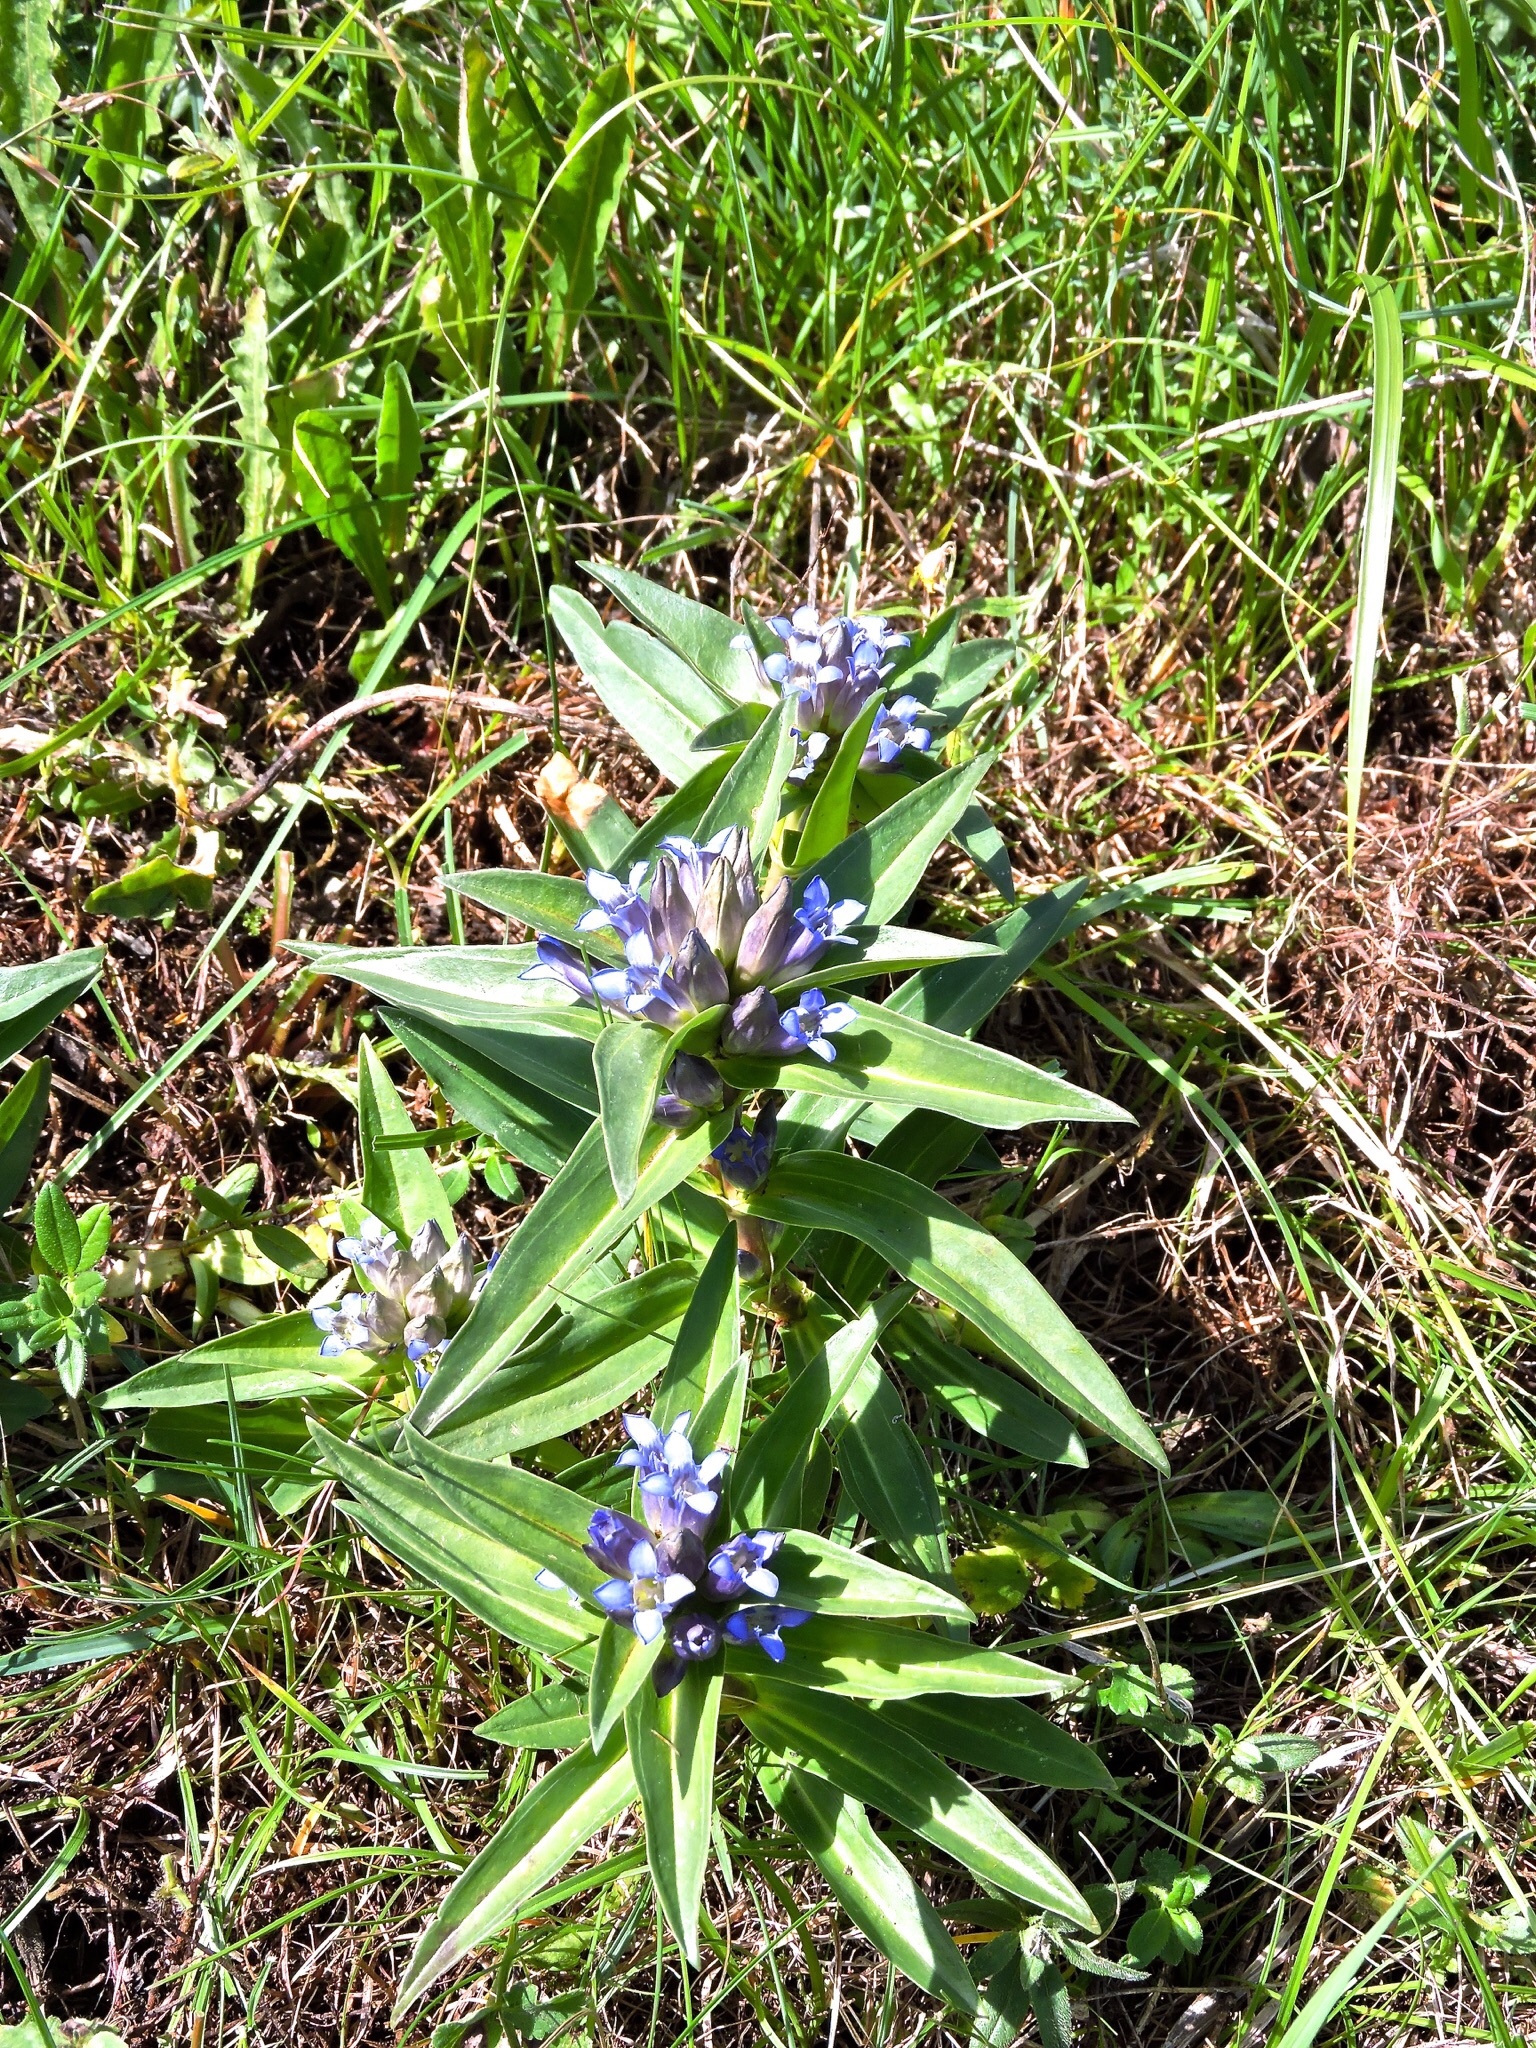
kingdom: Plantae
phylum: Tracheophyta
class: Magnoliopsida
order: Gentianales
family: Gentianaceae
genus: Gentiana
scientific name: Gentiana cruciata
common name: Cross gentian
